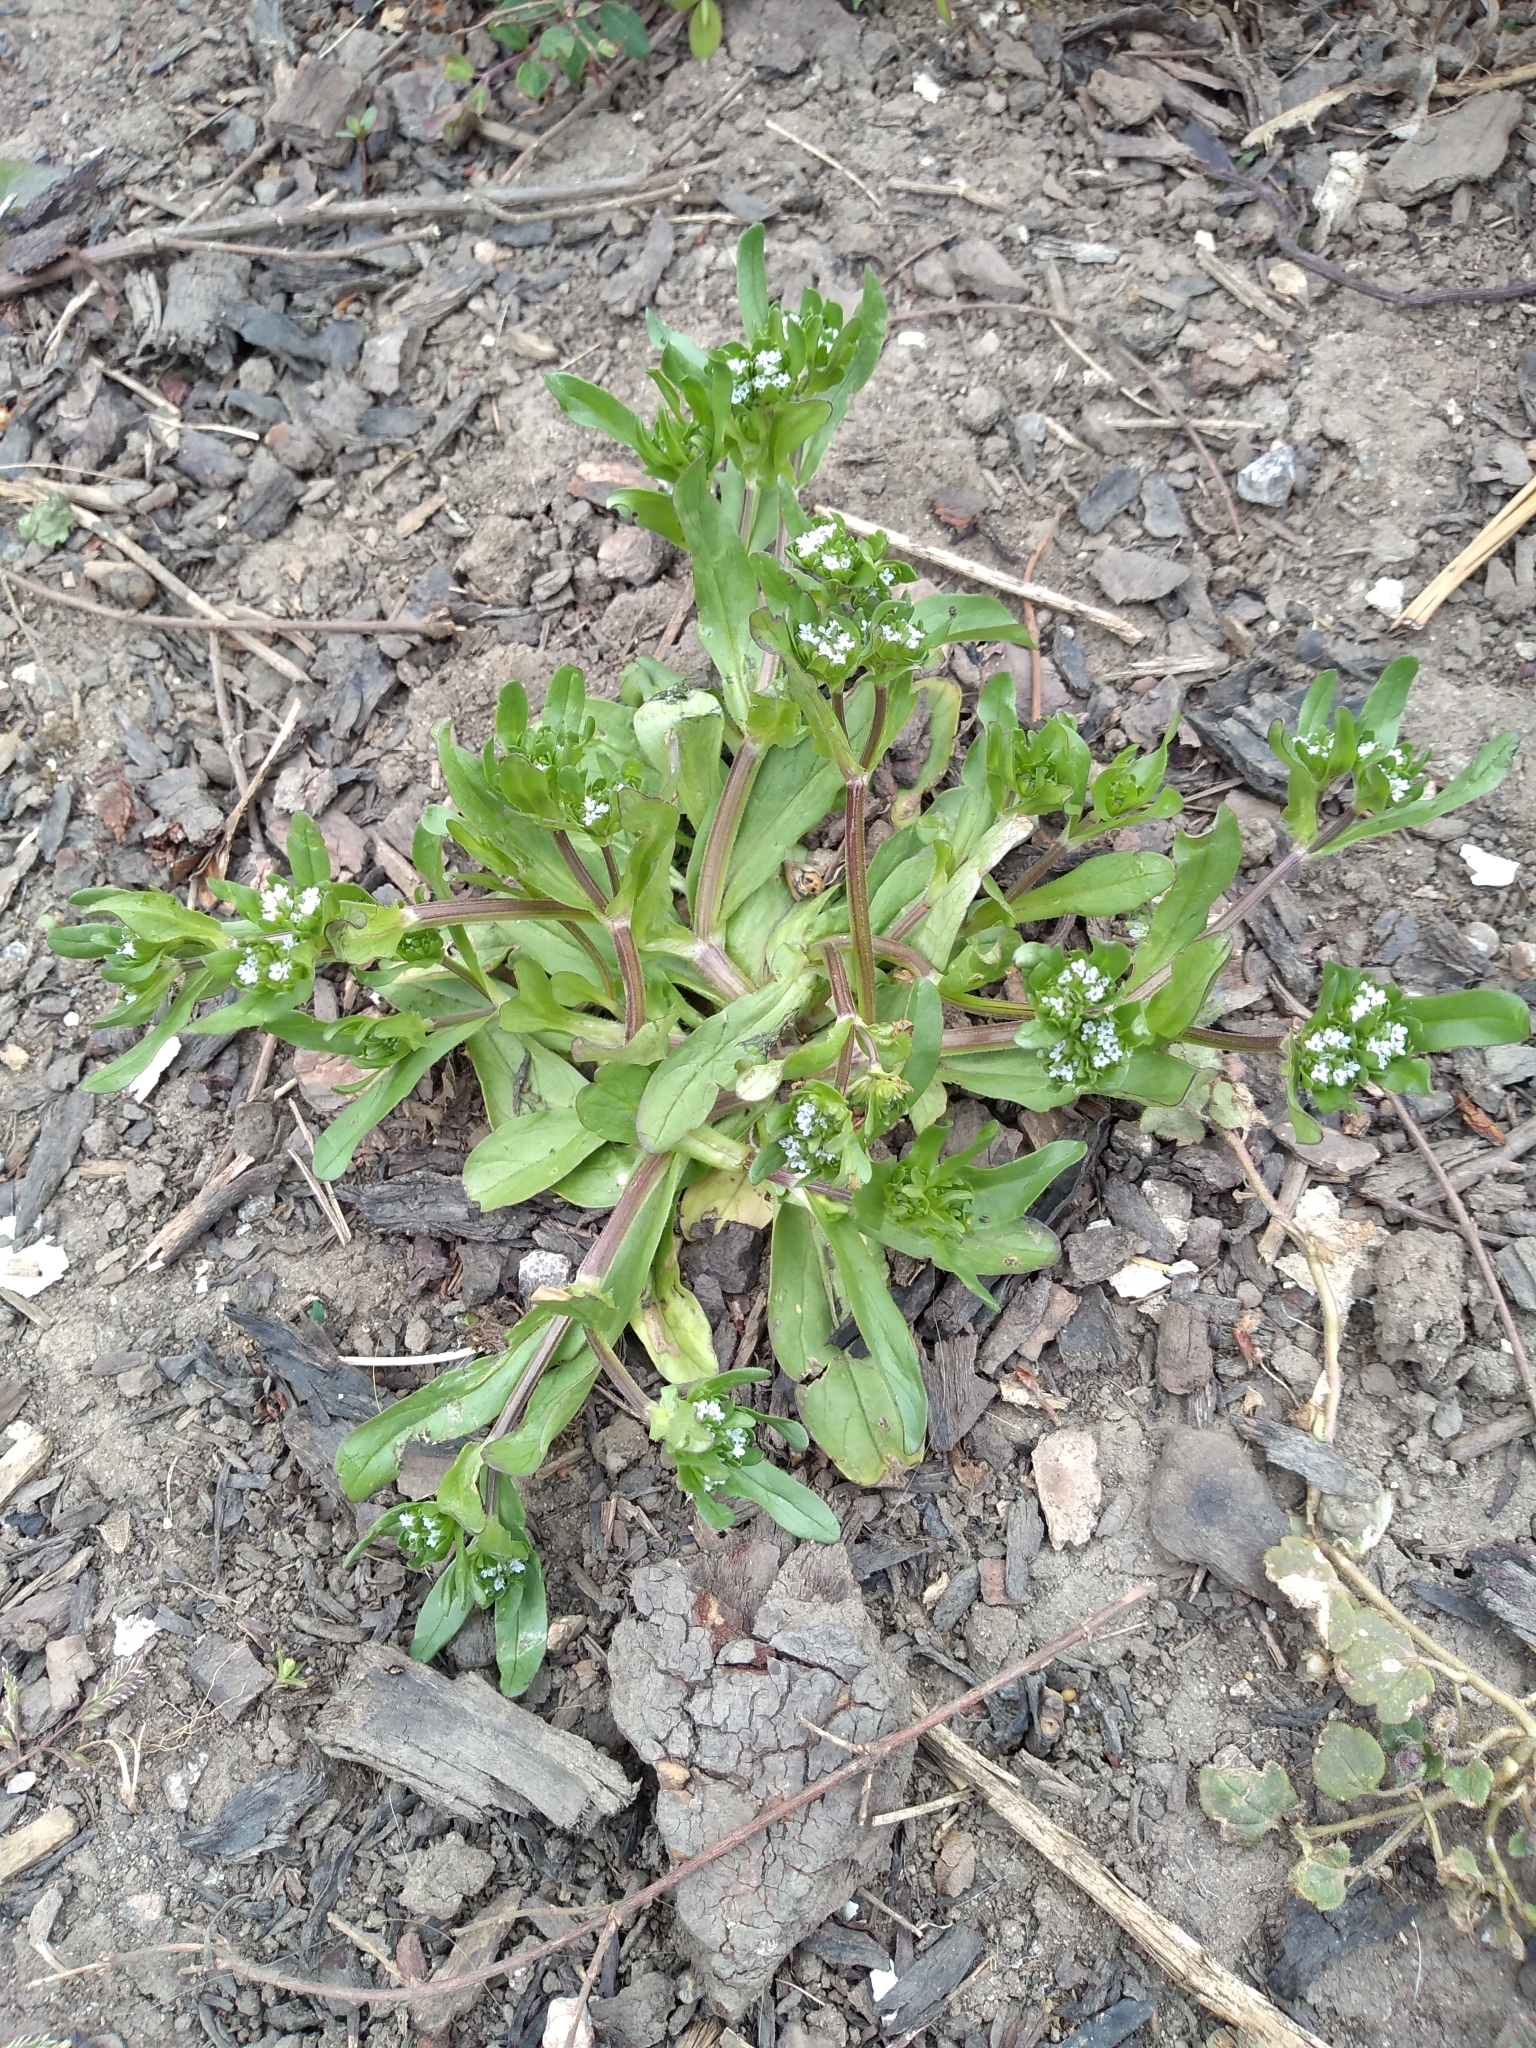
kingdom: Plantae
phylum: Tracheophyta
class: Magnoliopsida
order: Dipsacales
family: Caprifoliaceae
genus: Valerianella
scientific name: Valerianella locusta
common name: Common cornsalad
